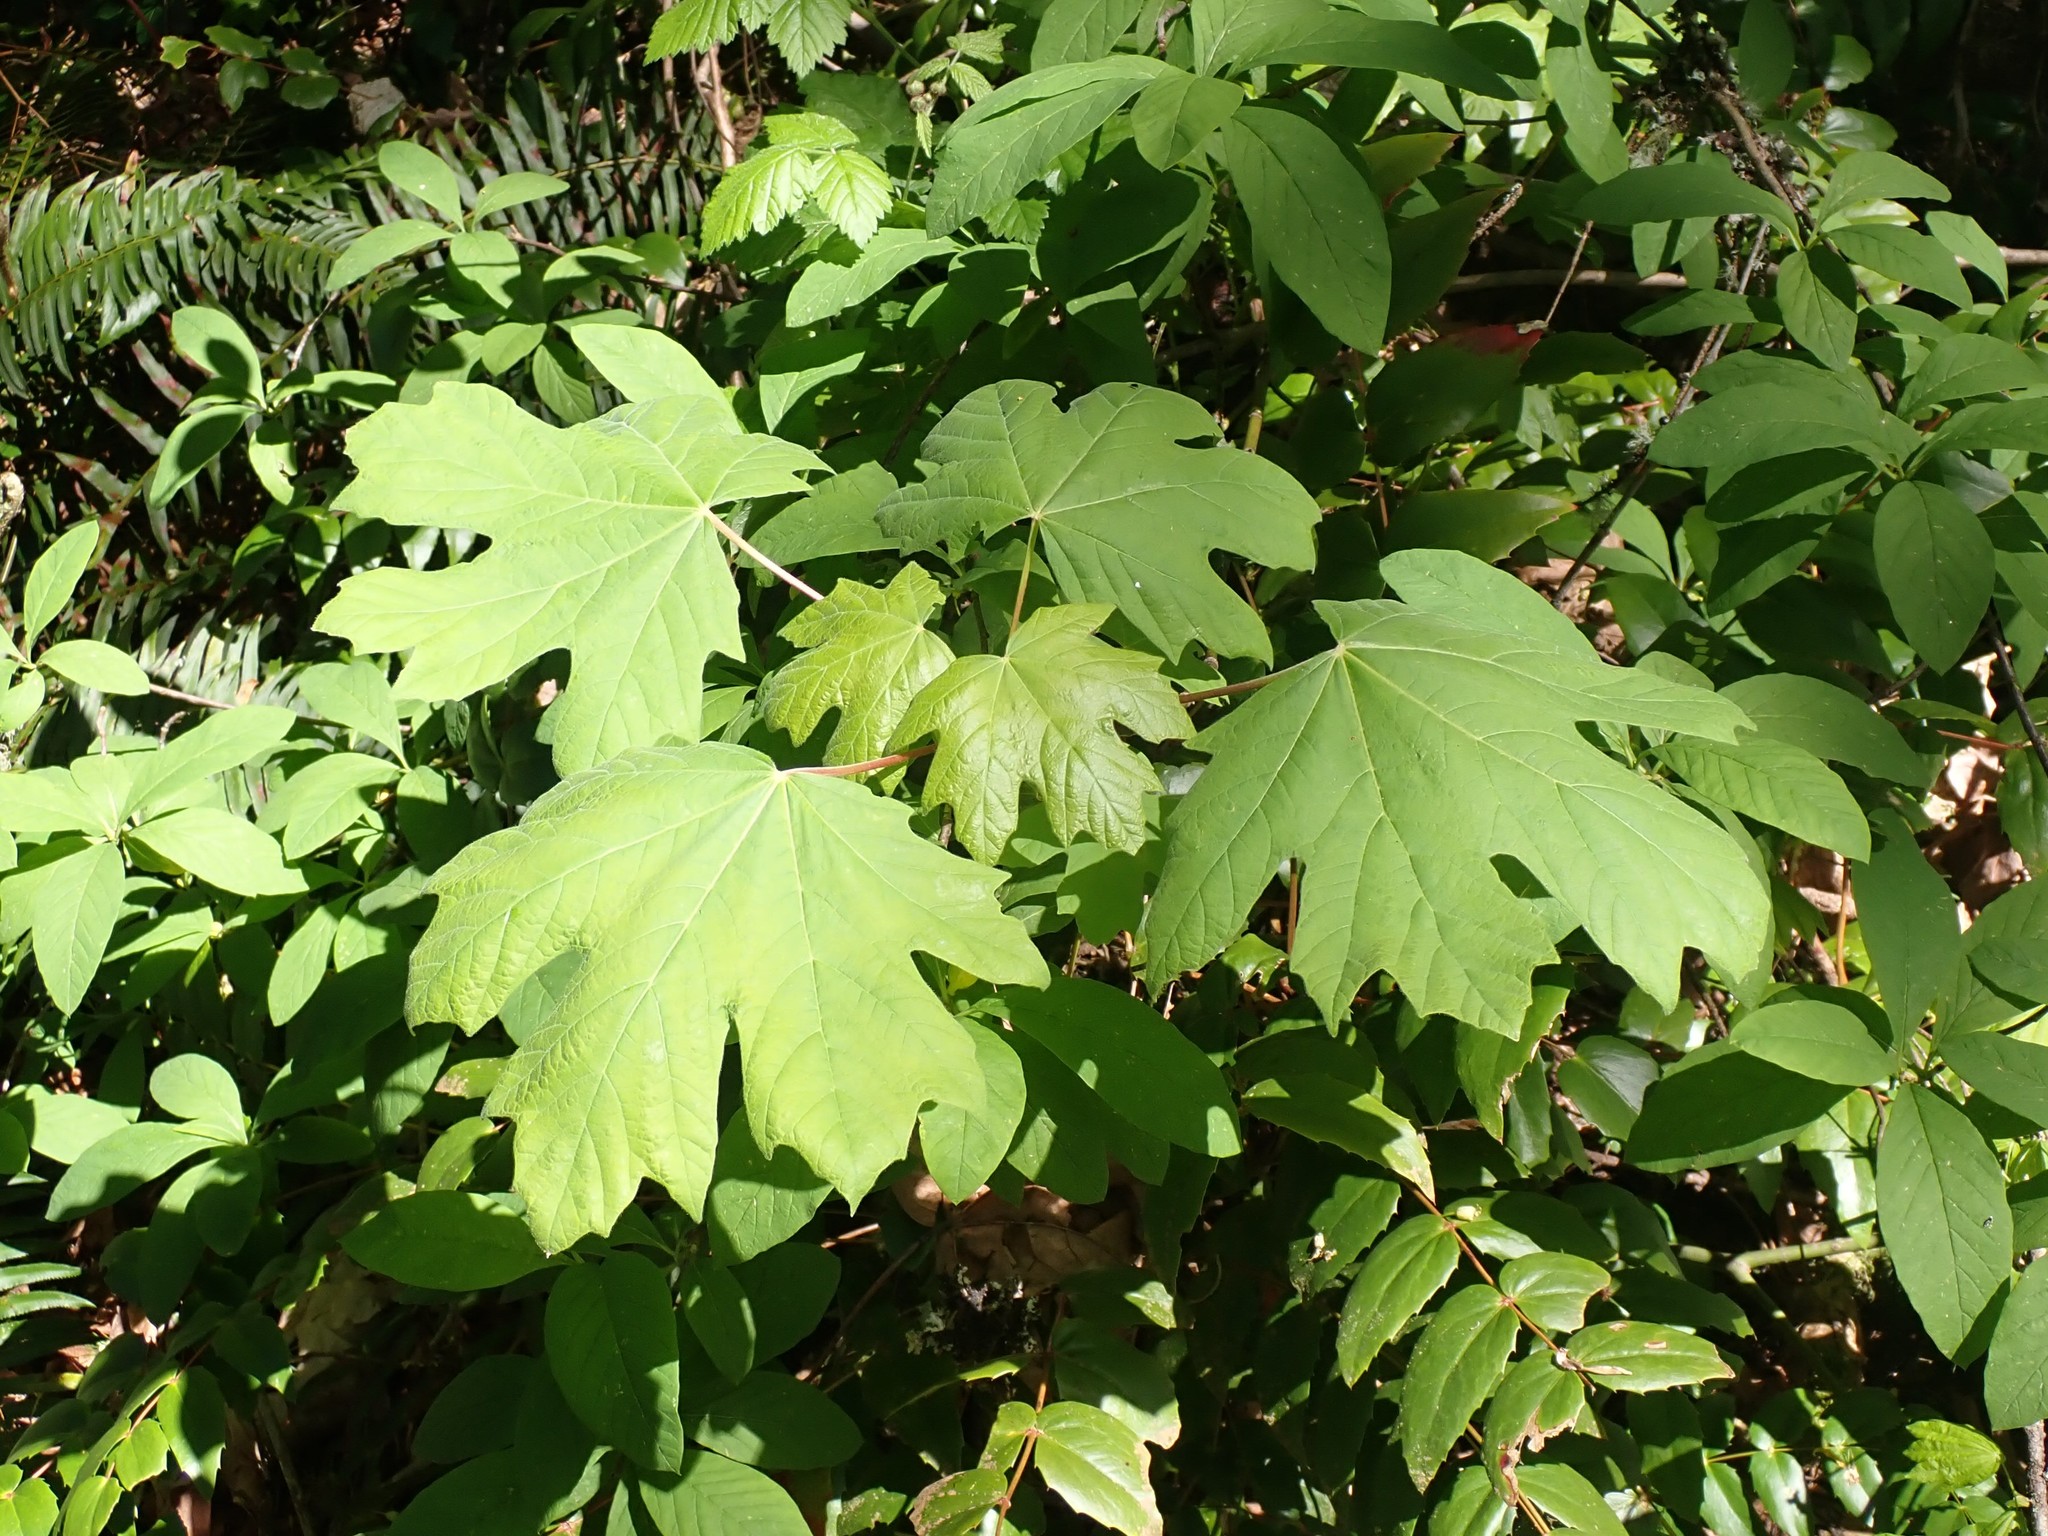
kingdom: Plantae
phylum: Tracheophyta
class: Magnoliopsida
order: Sapindales
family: Sapindaceae
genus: Acer
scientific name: Acer macrophyllum
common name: Oregon maple
